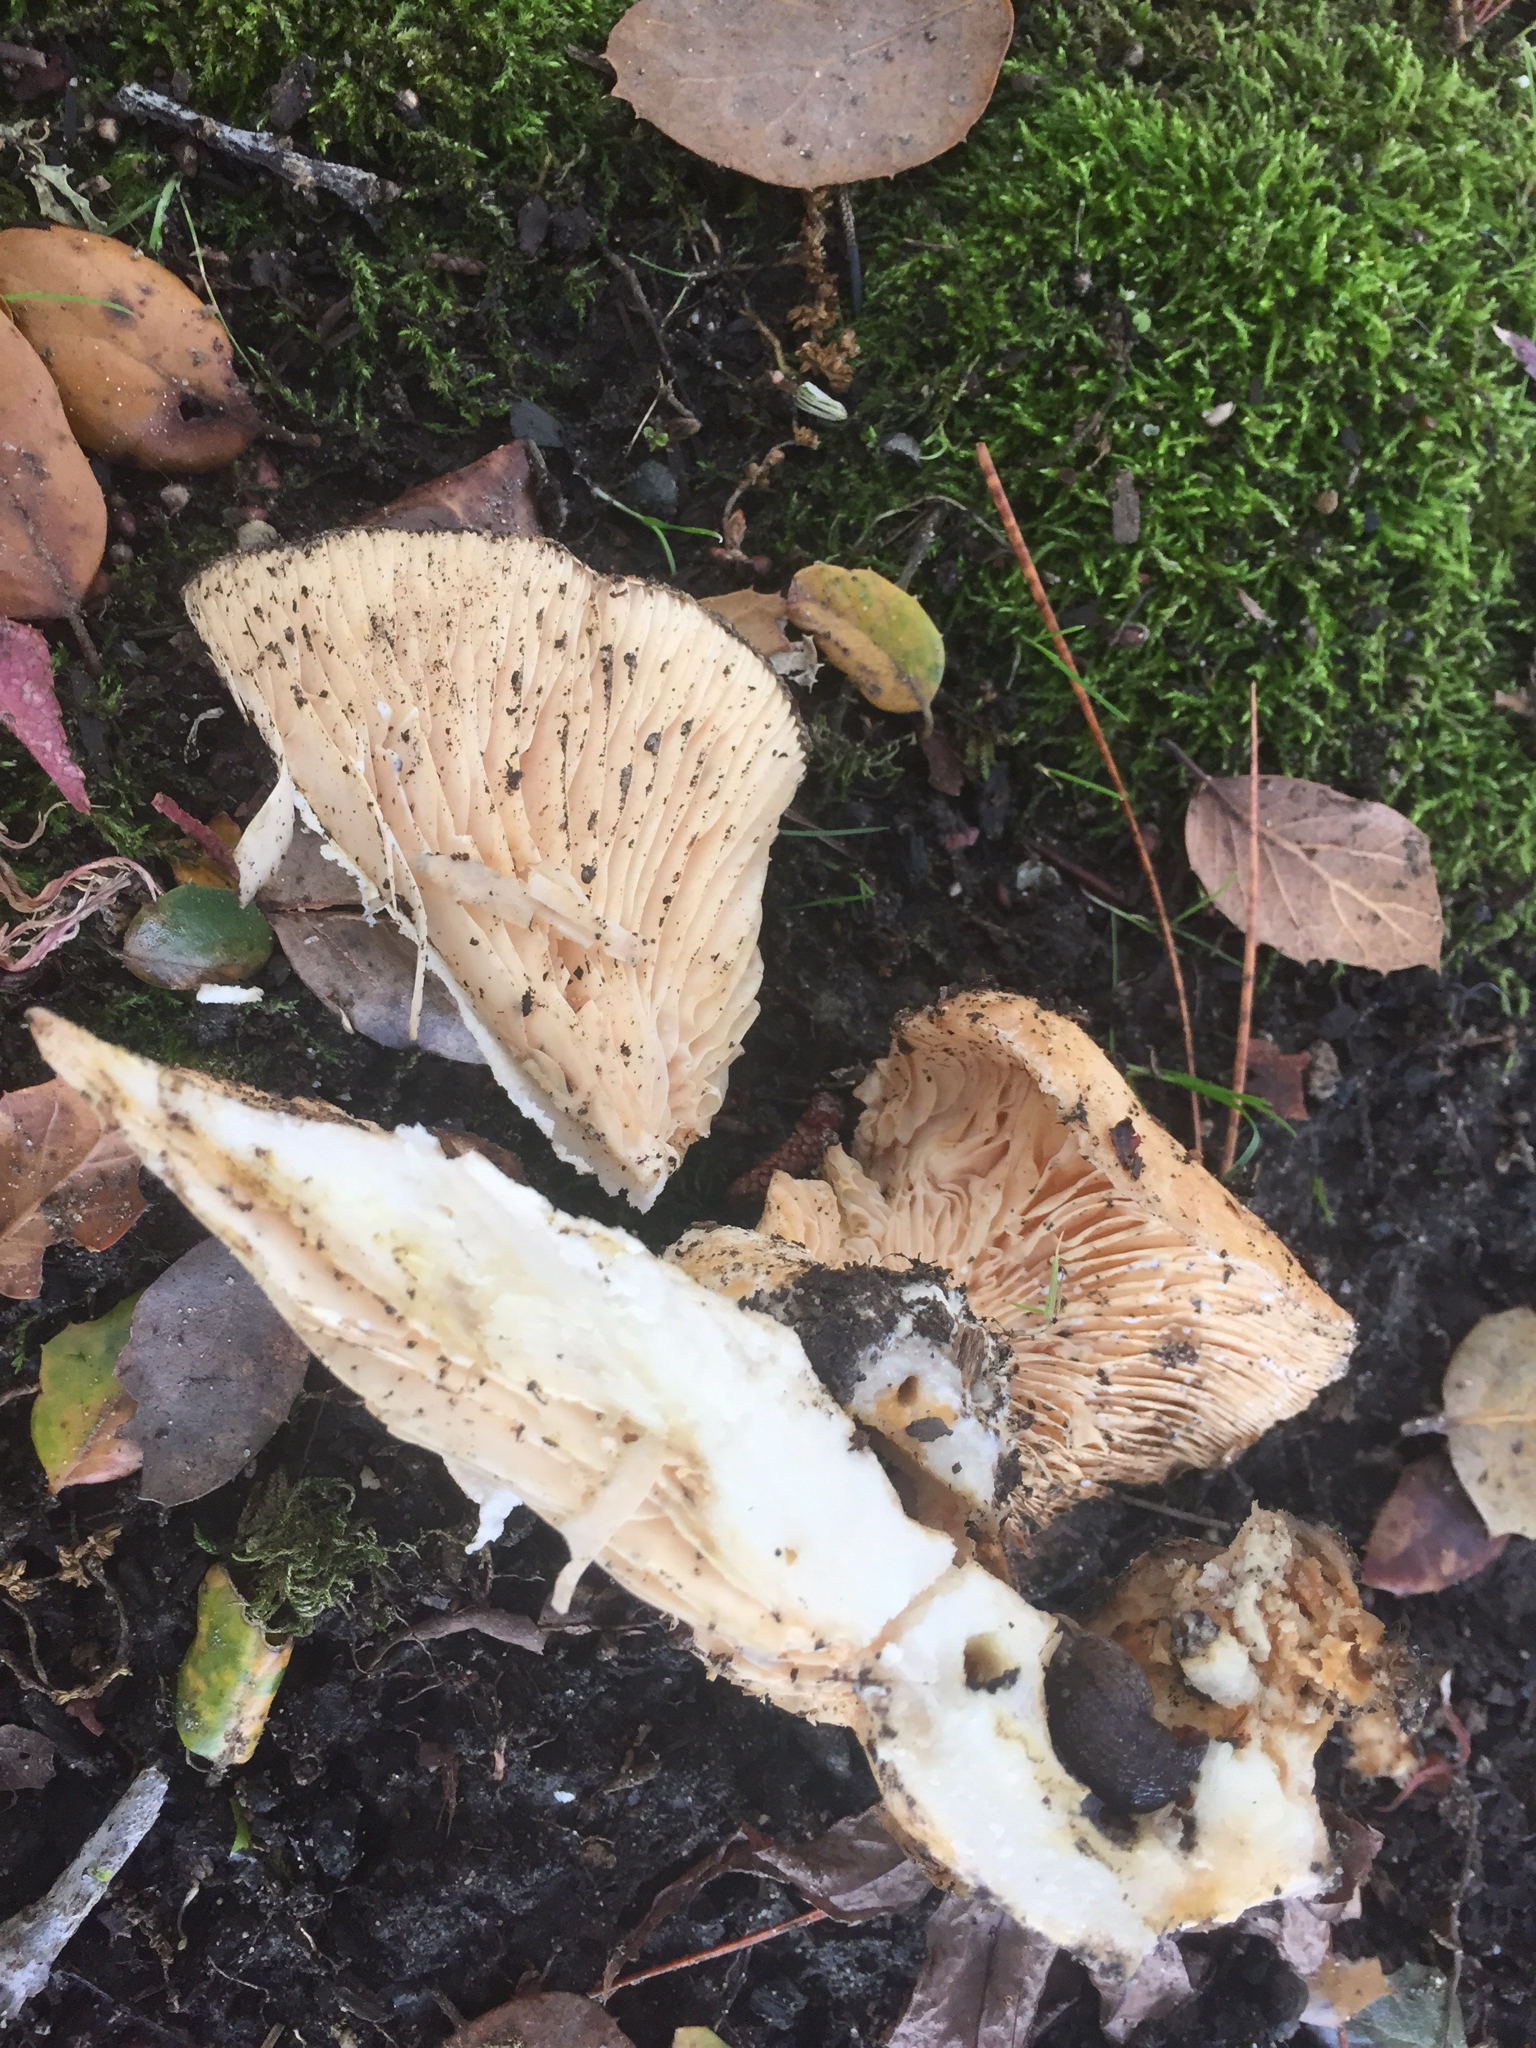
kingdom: Fungi
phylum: Basidiomycota
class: Agaricomycetes
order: Russulales
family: Russulaceae
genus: Lactarius
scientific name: Lactarius alnicola
